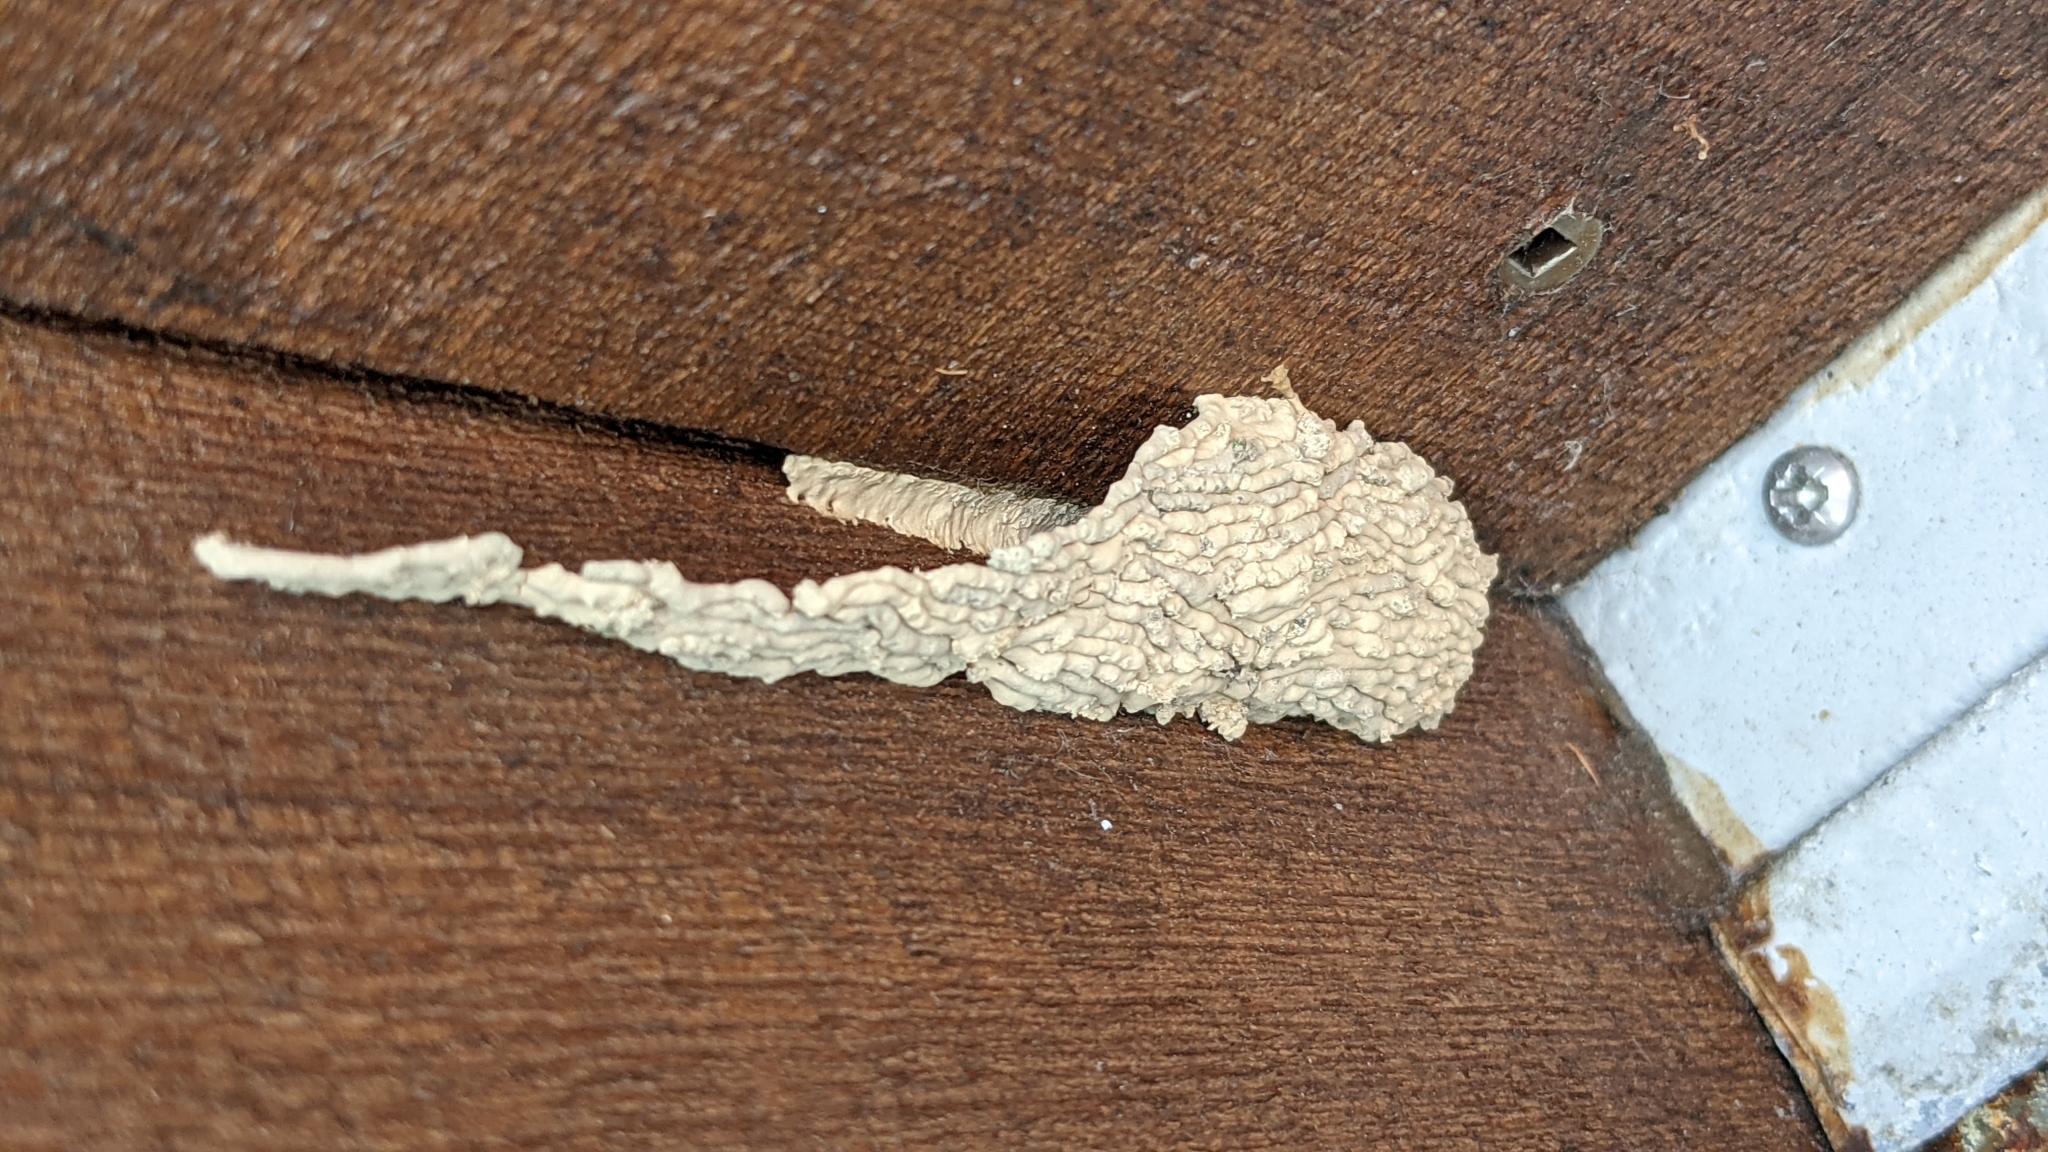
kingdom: Animalia
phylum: Arthropoda
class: Insecta
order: Hymenoptera
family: Crabronidae
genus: Pison
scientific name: Pison spinolae
